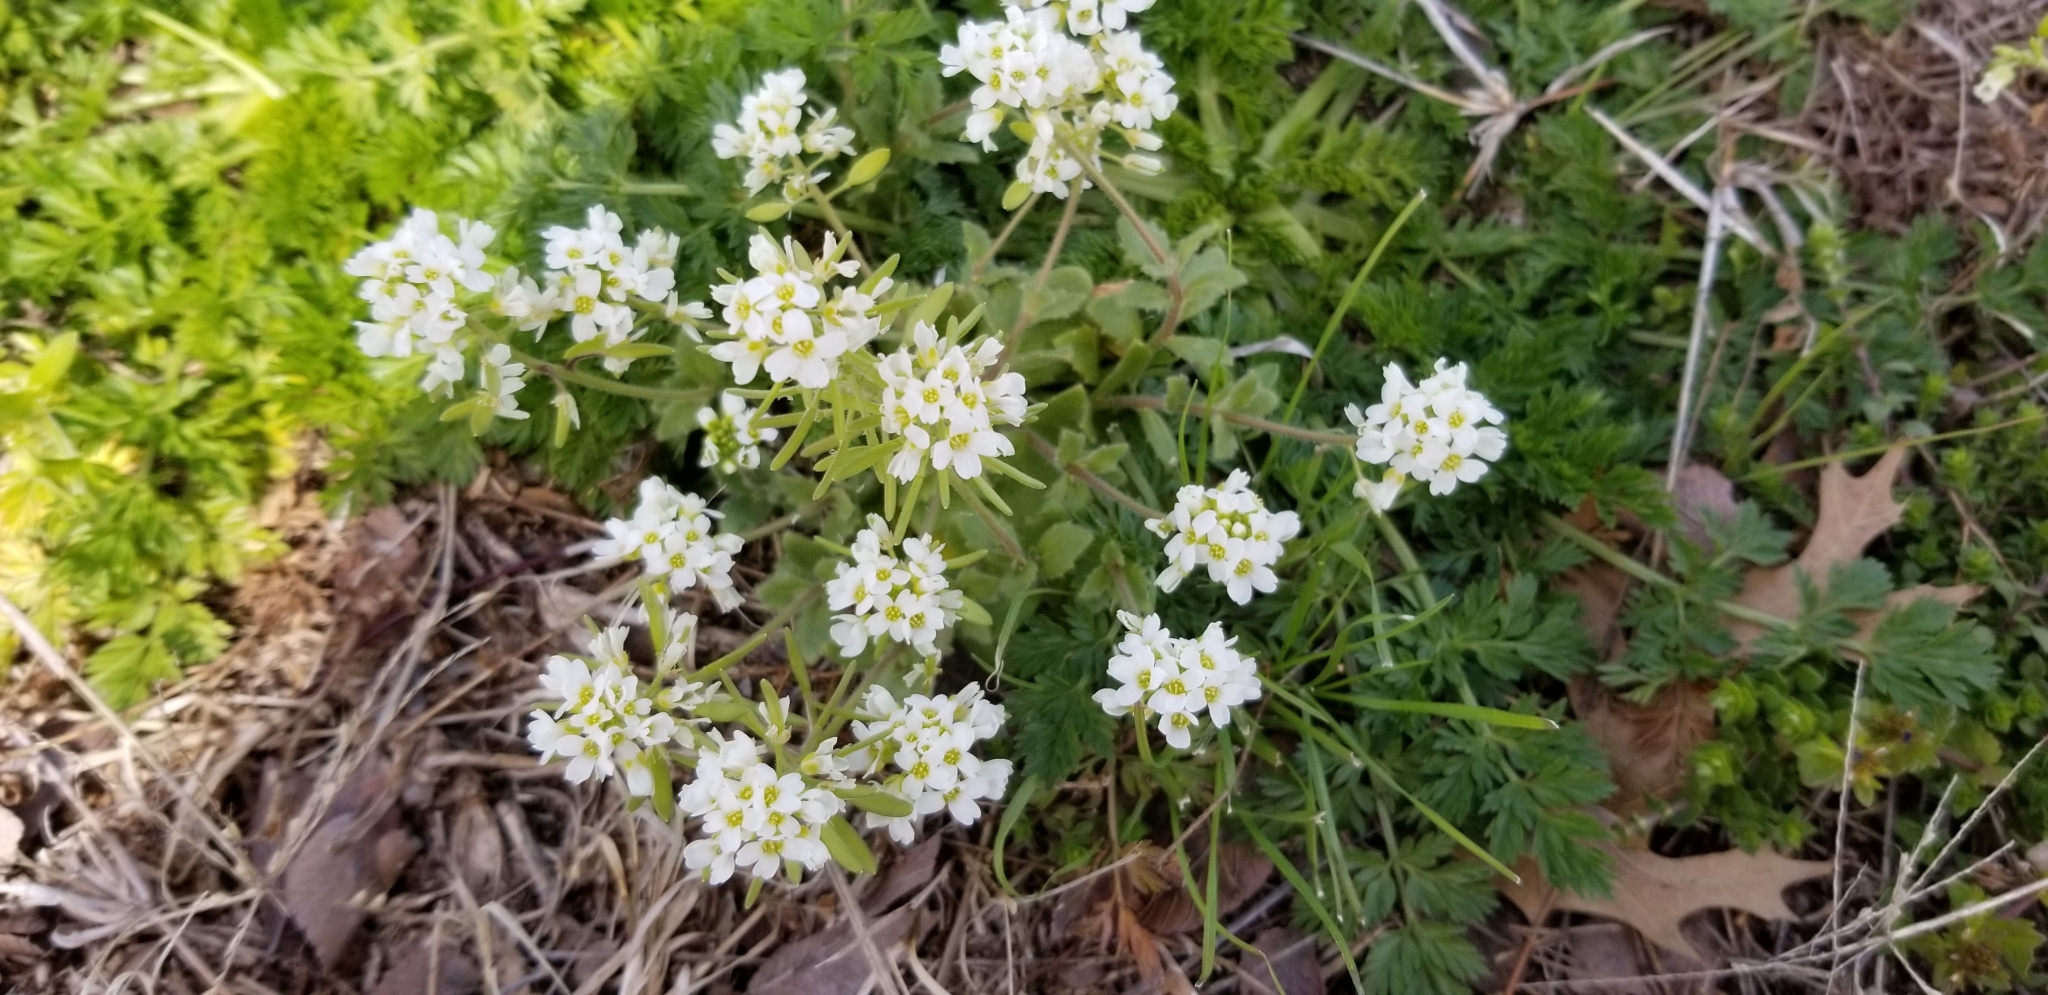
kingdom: Plantae
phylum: Tracheophyta
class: Magnoliopsida
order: Brassicales
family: Brassicaceae
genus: Tomostima
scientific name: Tomostima cuneifolia
